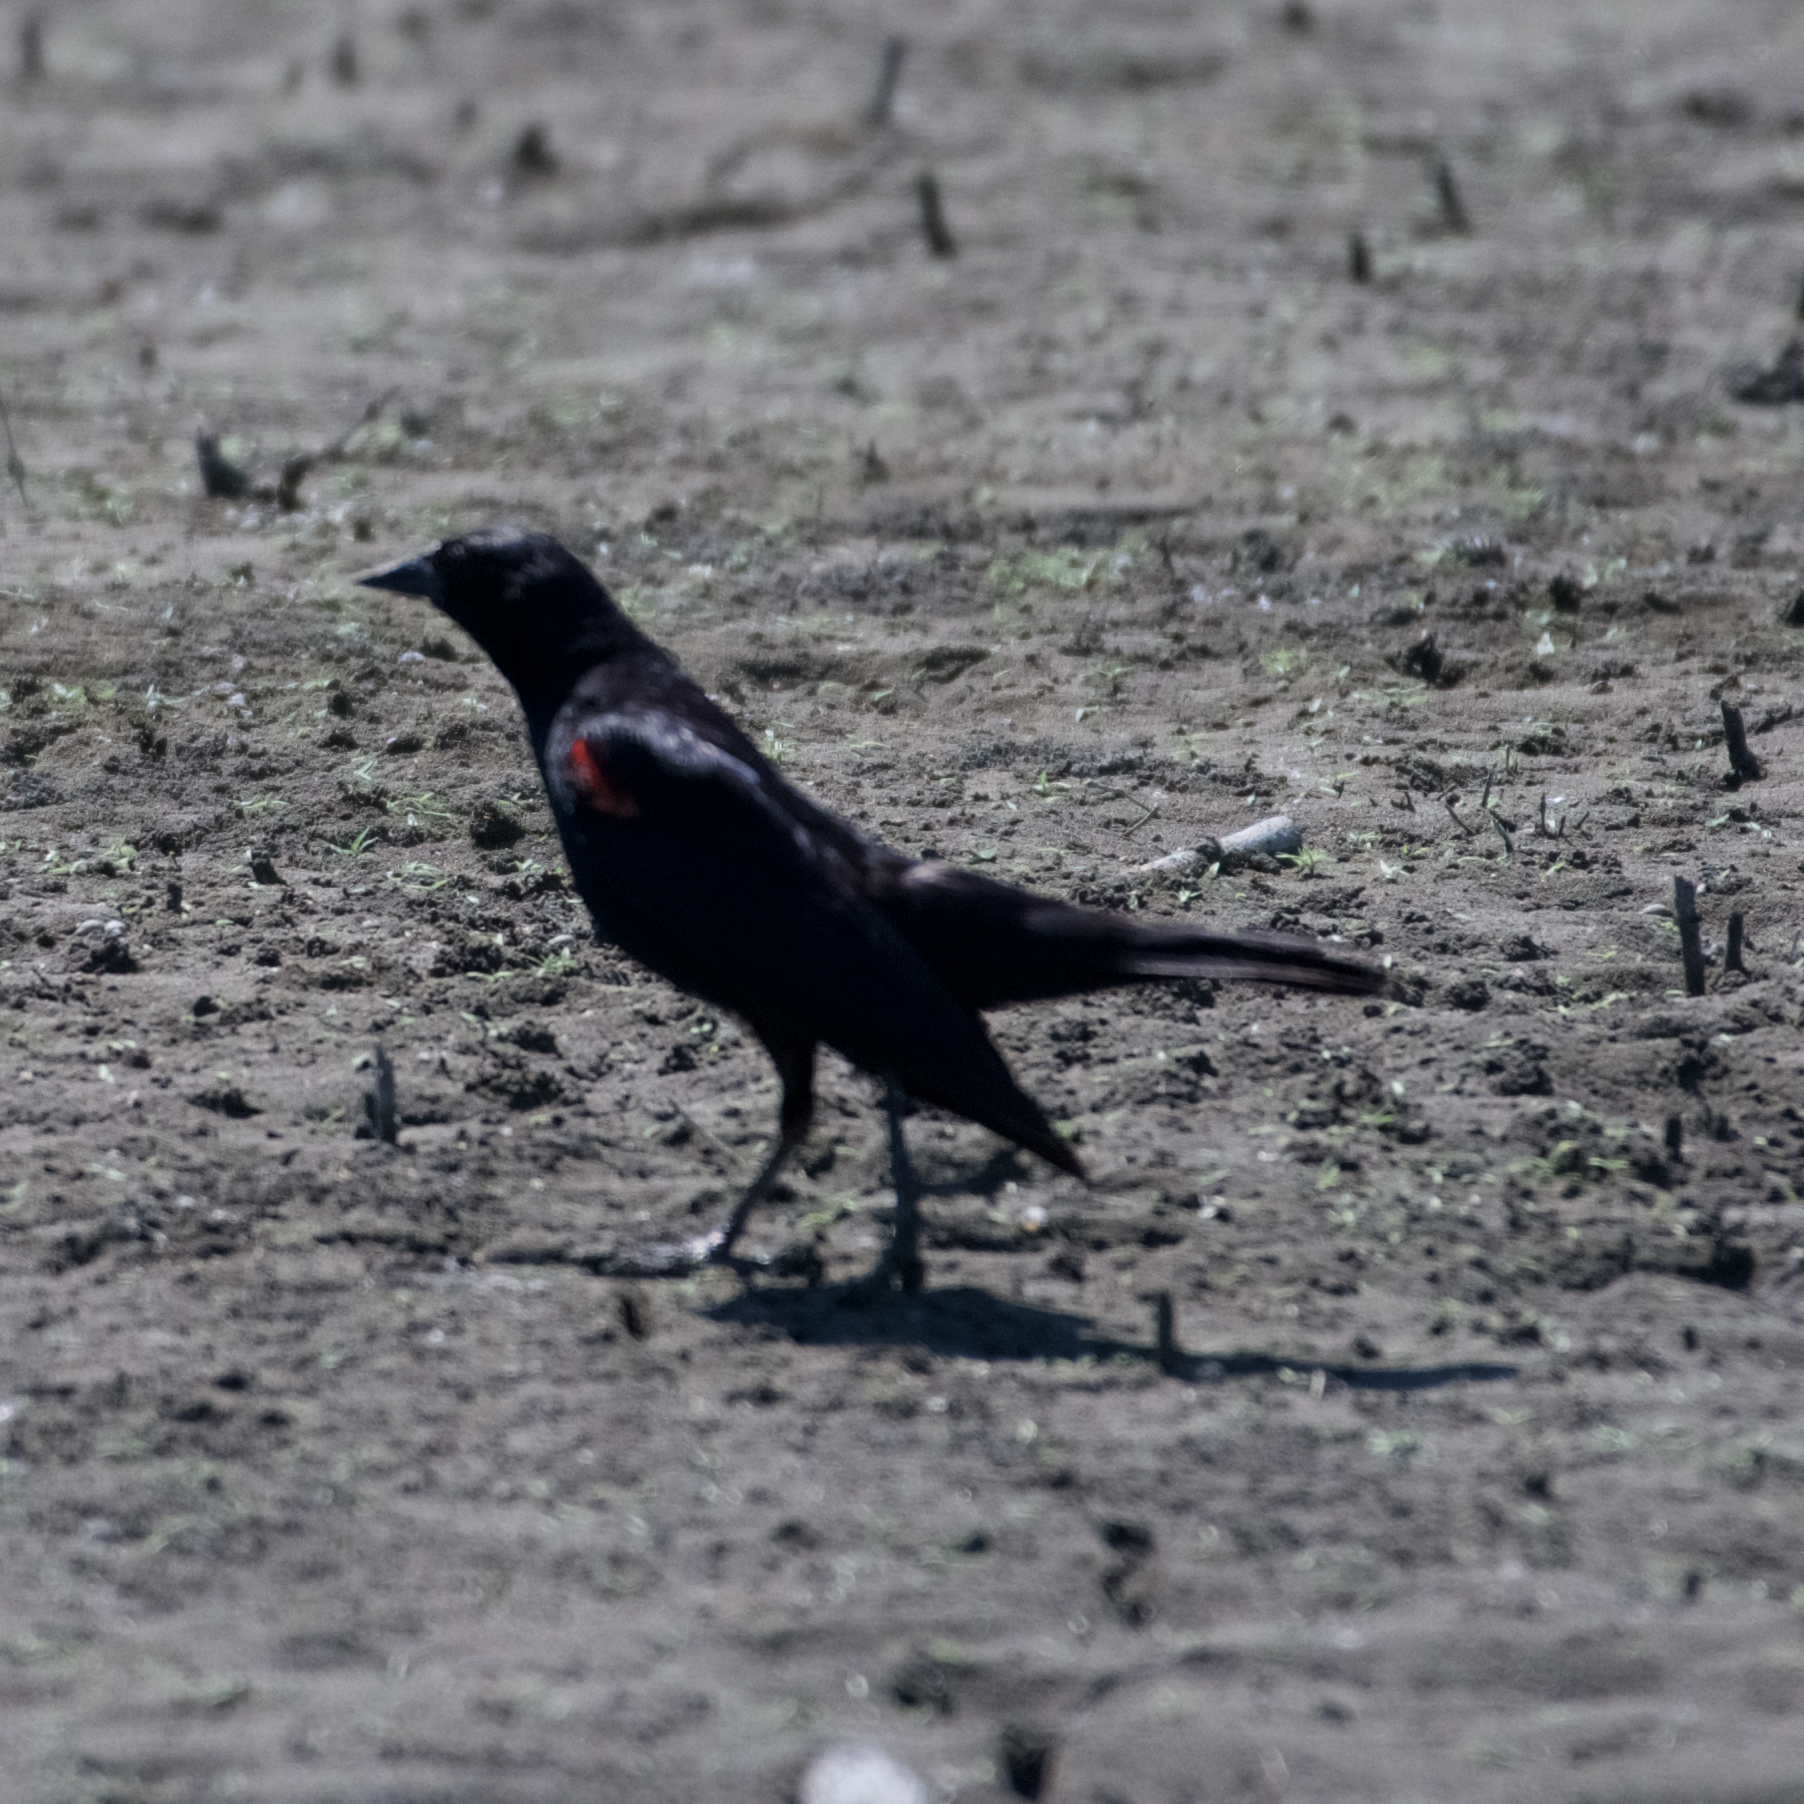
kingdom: Animalia
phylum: Chordata
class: Aves
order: Passeriformes
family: Icteridae
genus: Agelaius
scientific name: Agelaius phoeniceus
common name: Red-winged blackbird
